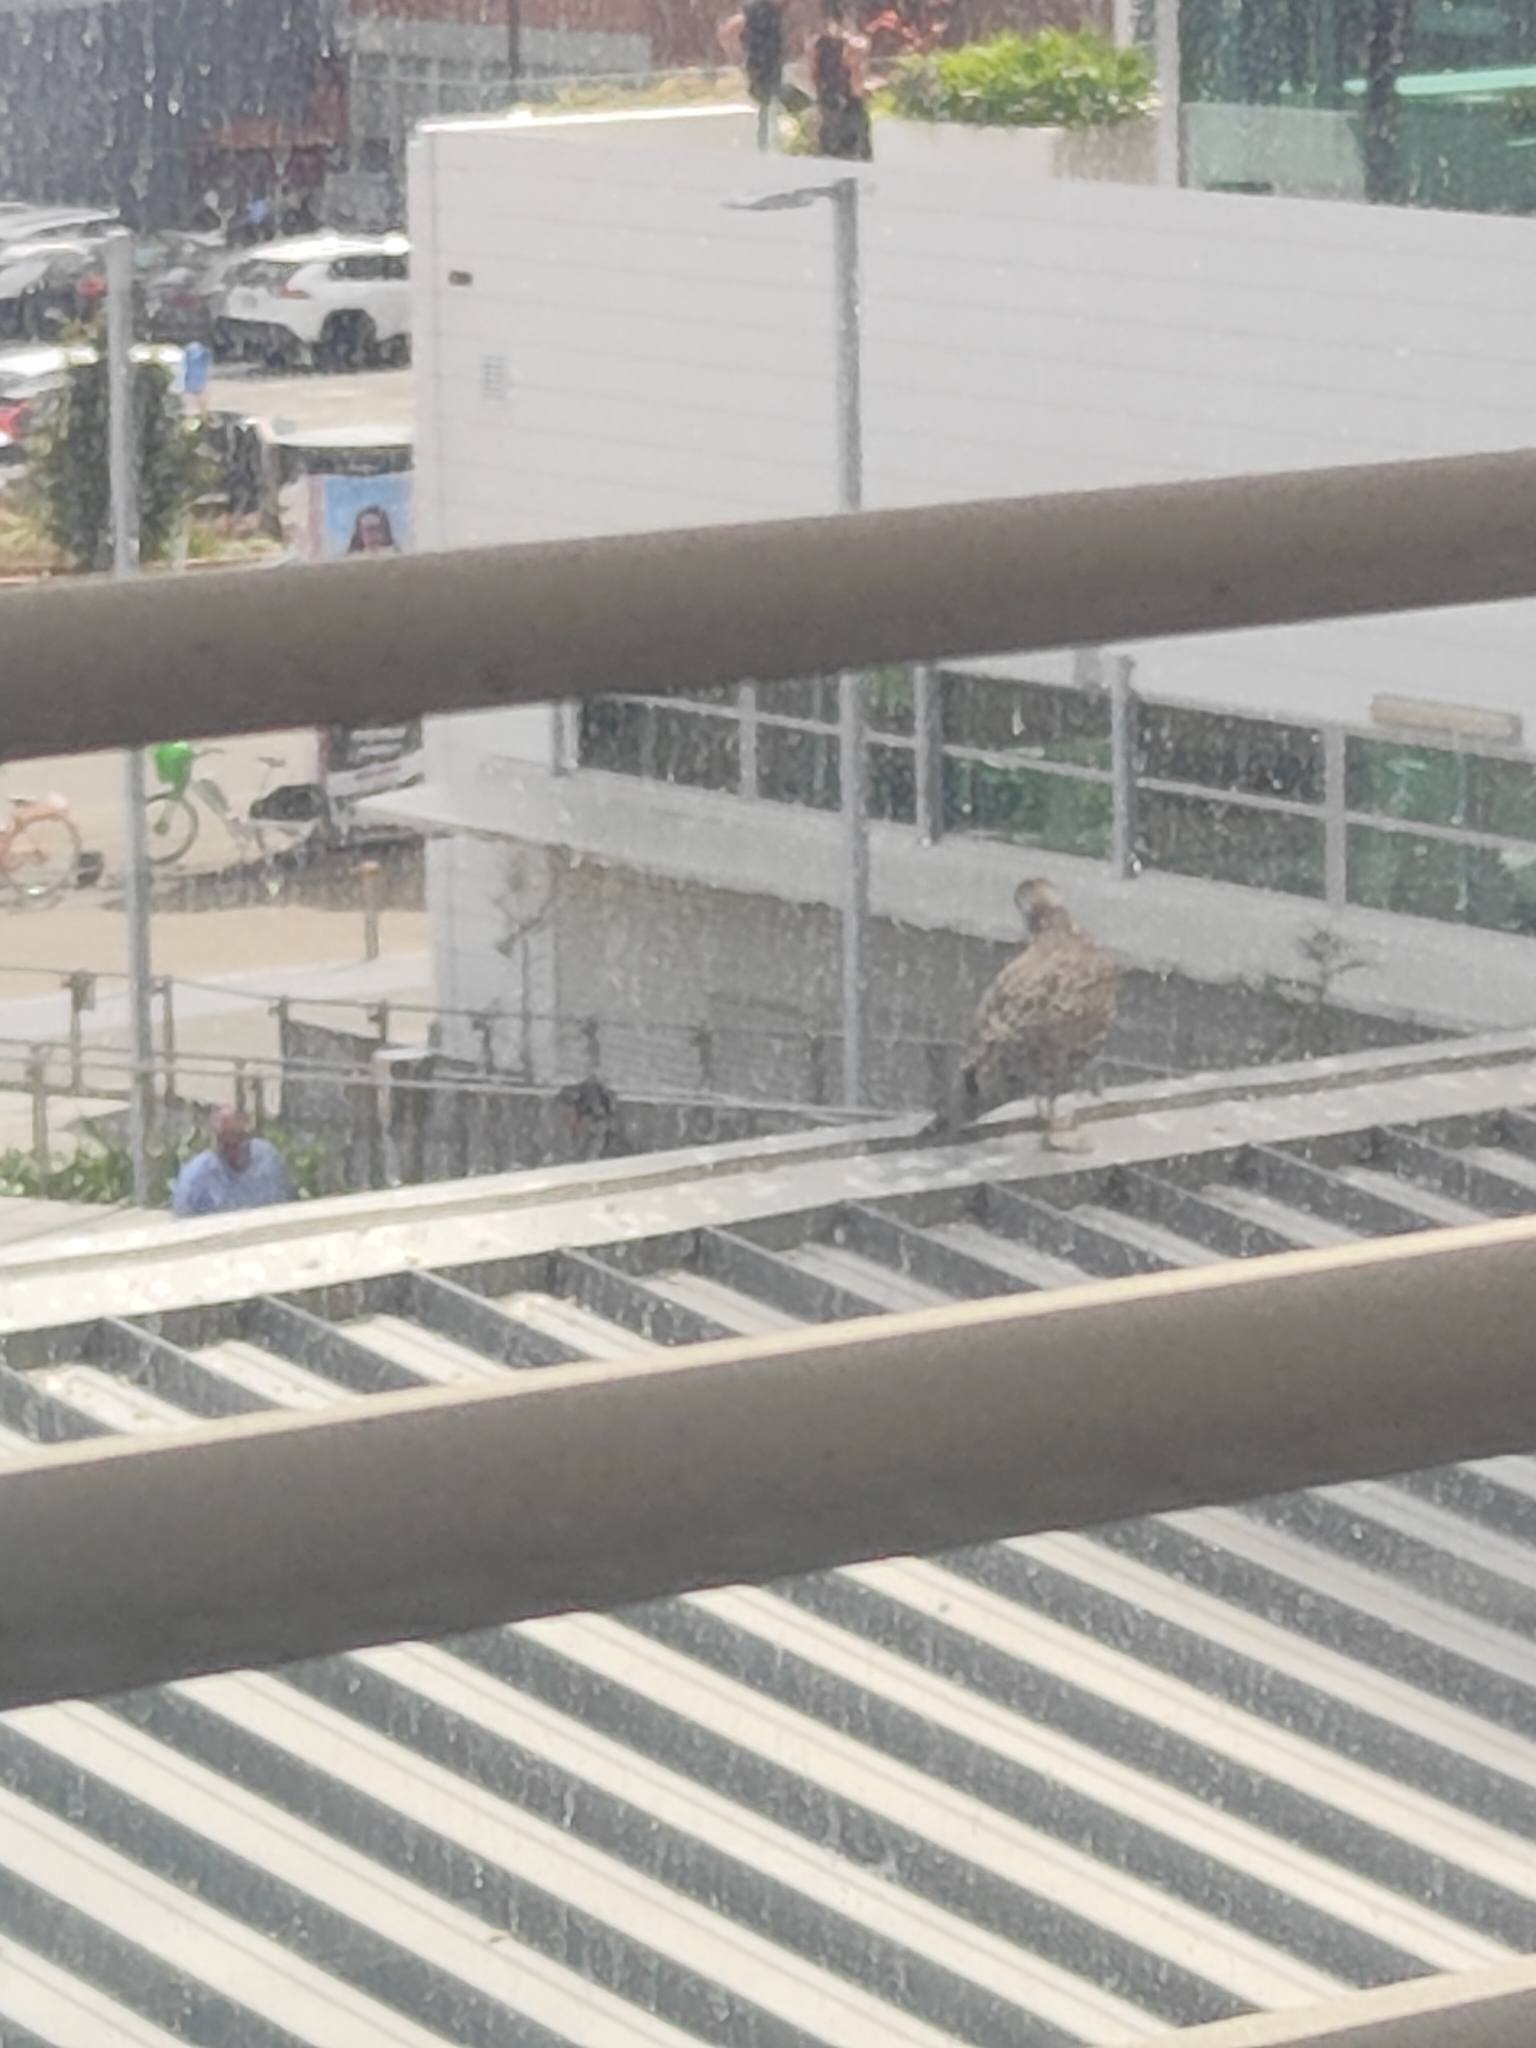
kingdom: Animalia
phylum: Chordata
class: Aves
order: Charadriiformes
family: Laridae
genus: Larus
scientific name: Larus dominicanus
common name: Kelp gull
